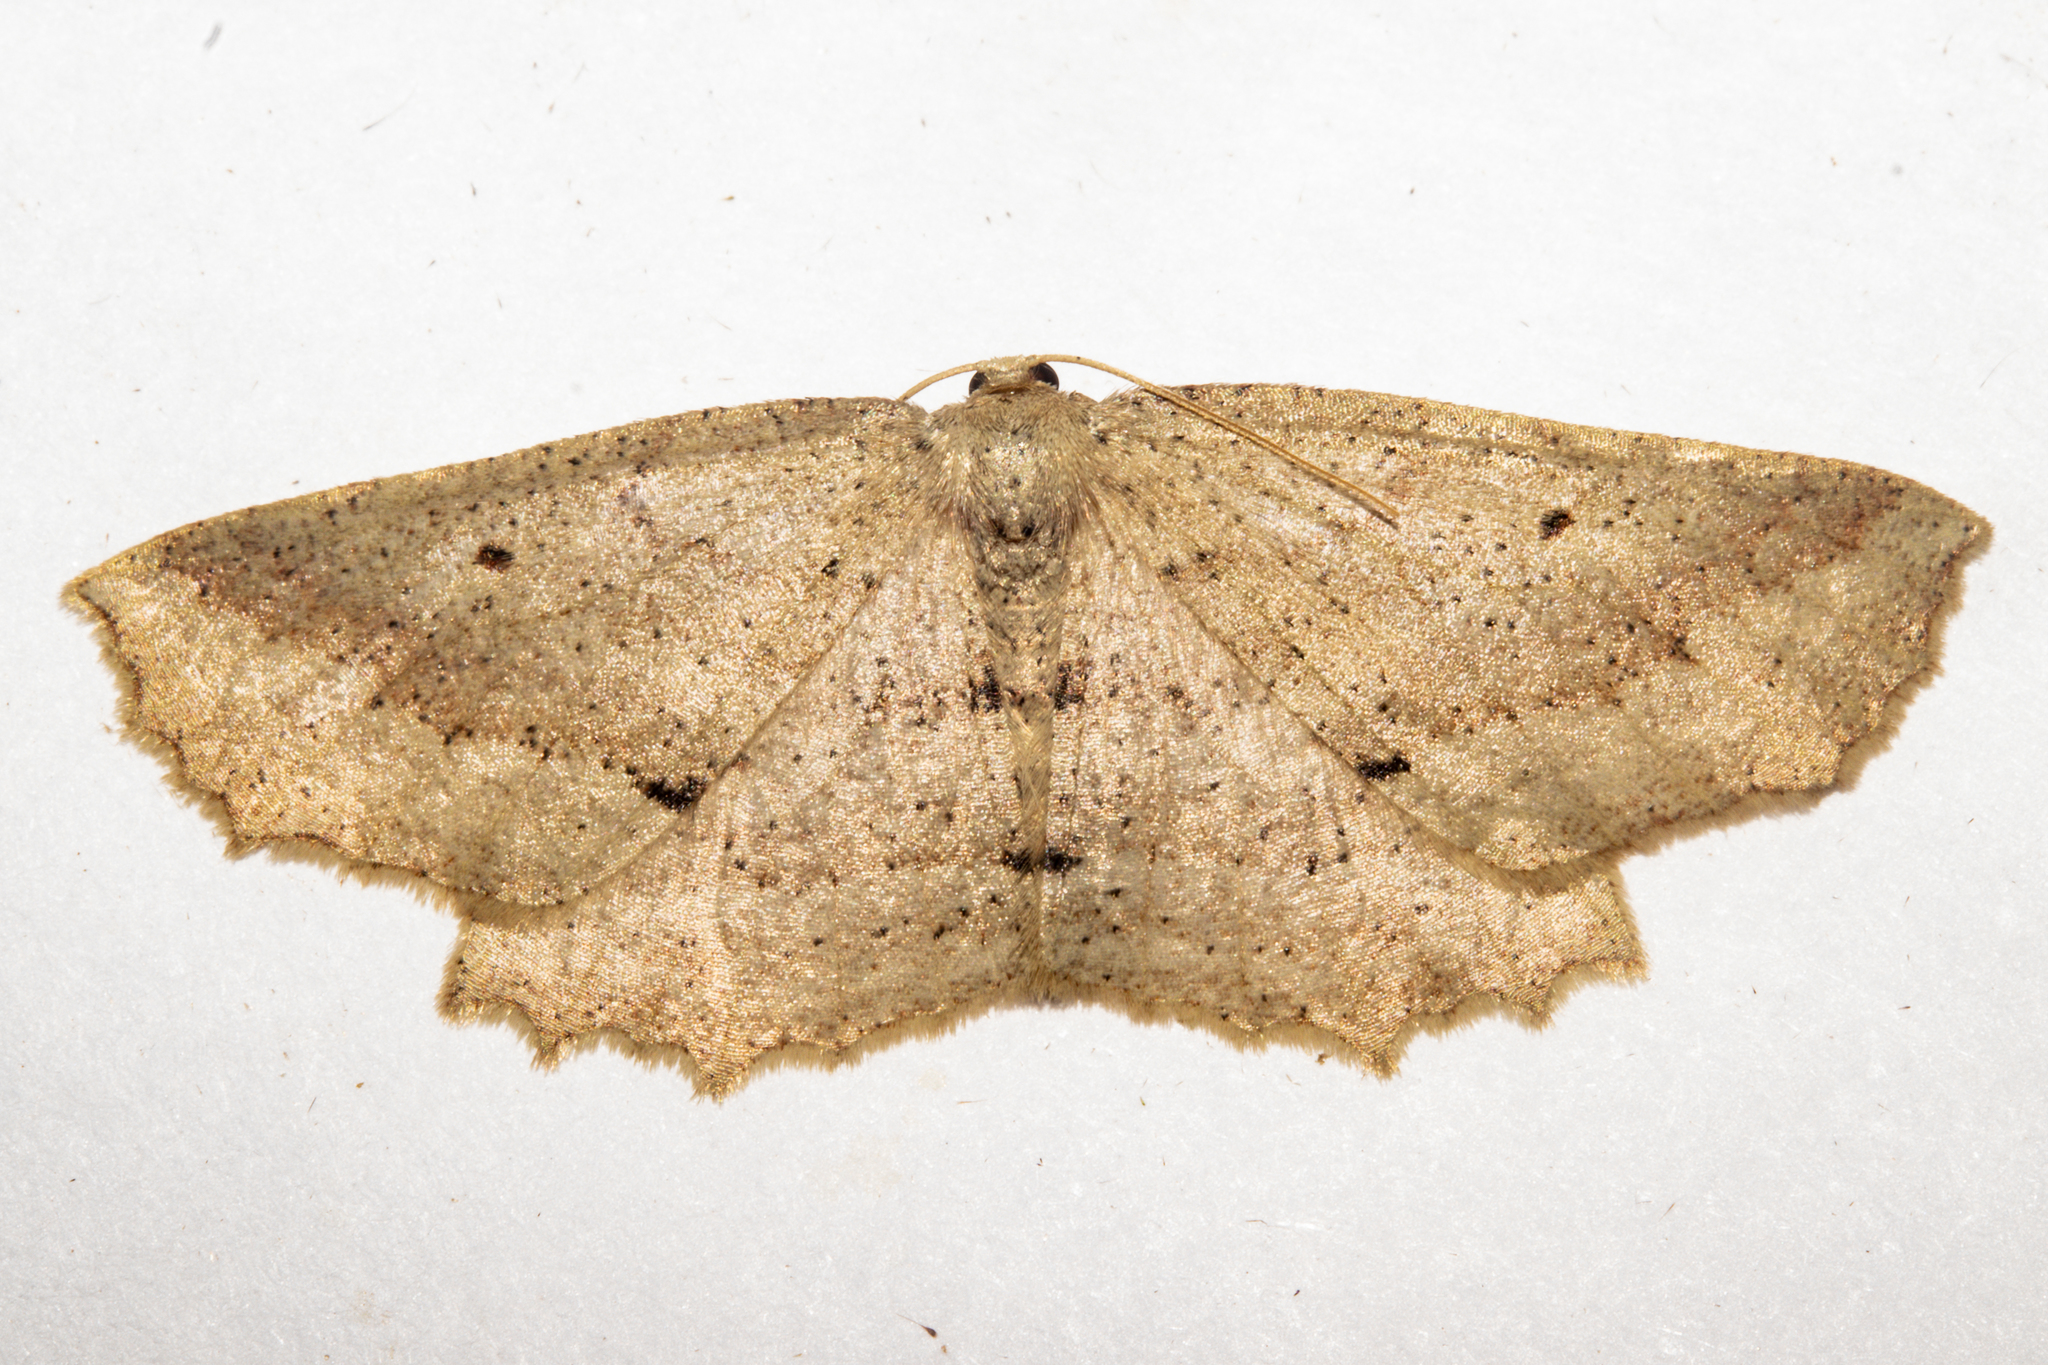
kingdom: Animalia
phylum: Arthropoda
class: Insecta
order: Lepidoptera
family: Geometridae
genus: Xyridacma
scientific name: Xyridacma veronicae
